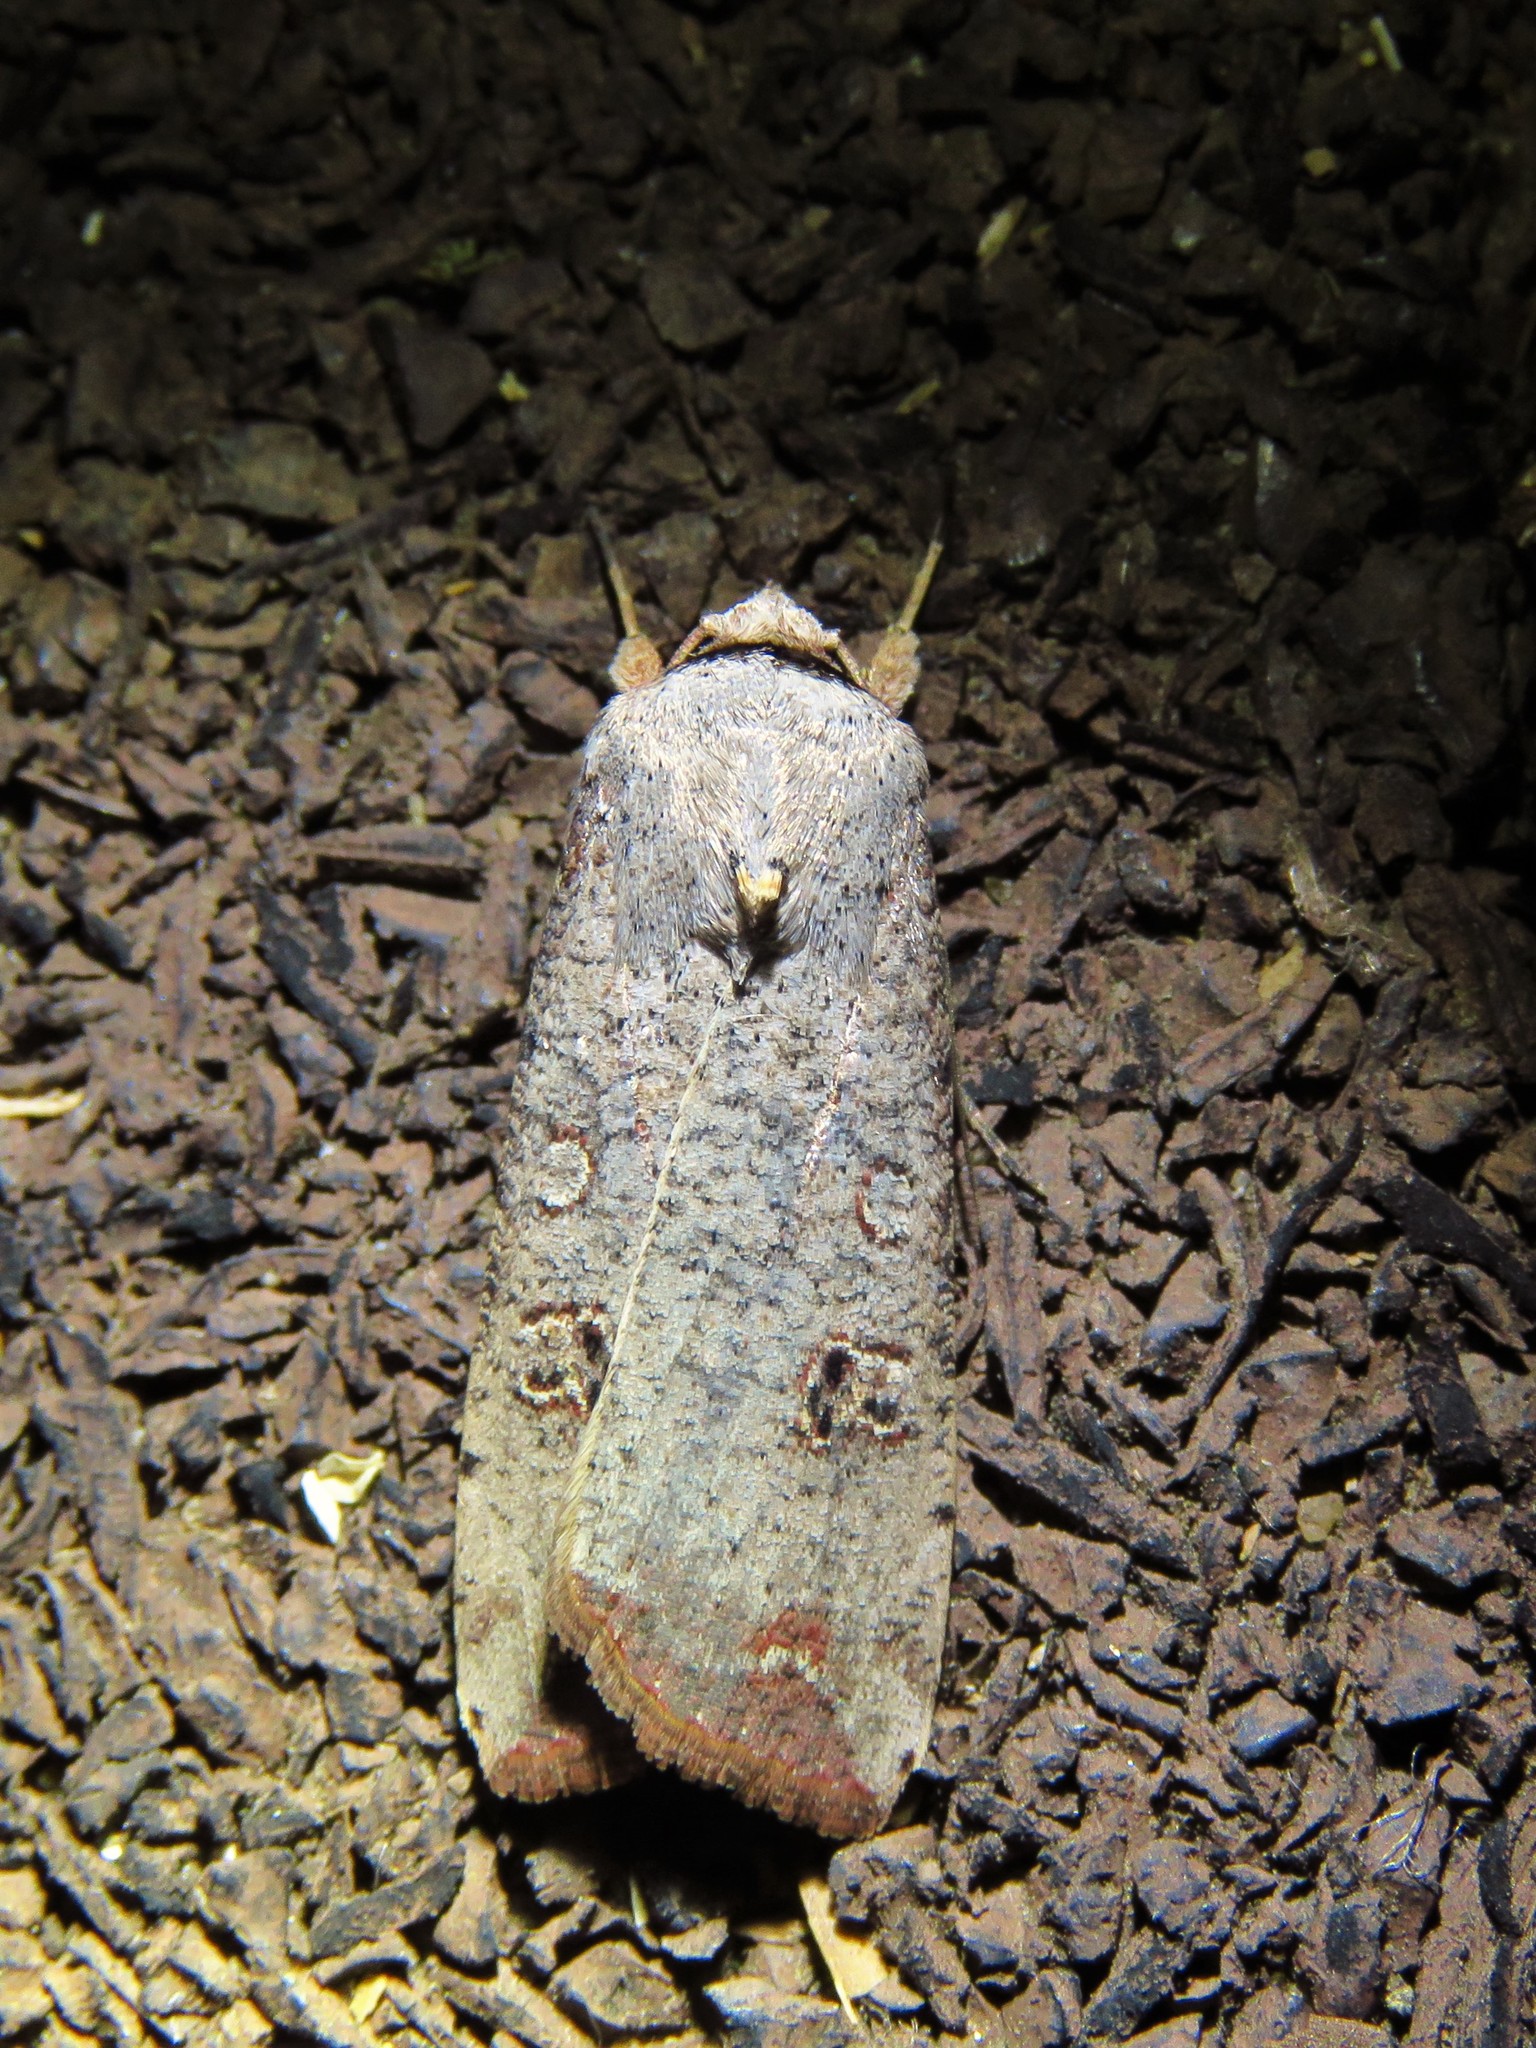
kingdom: Animalia
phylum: Arthropoda
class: Insecta
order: Lepidoptera
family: Noctuidae
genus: Anicla
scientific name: Anicla infecta
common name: Green cutworm
